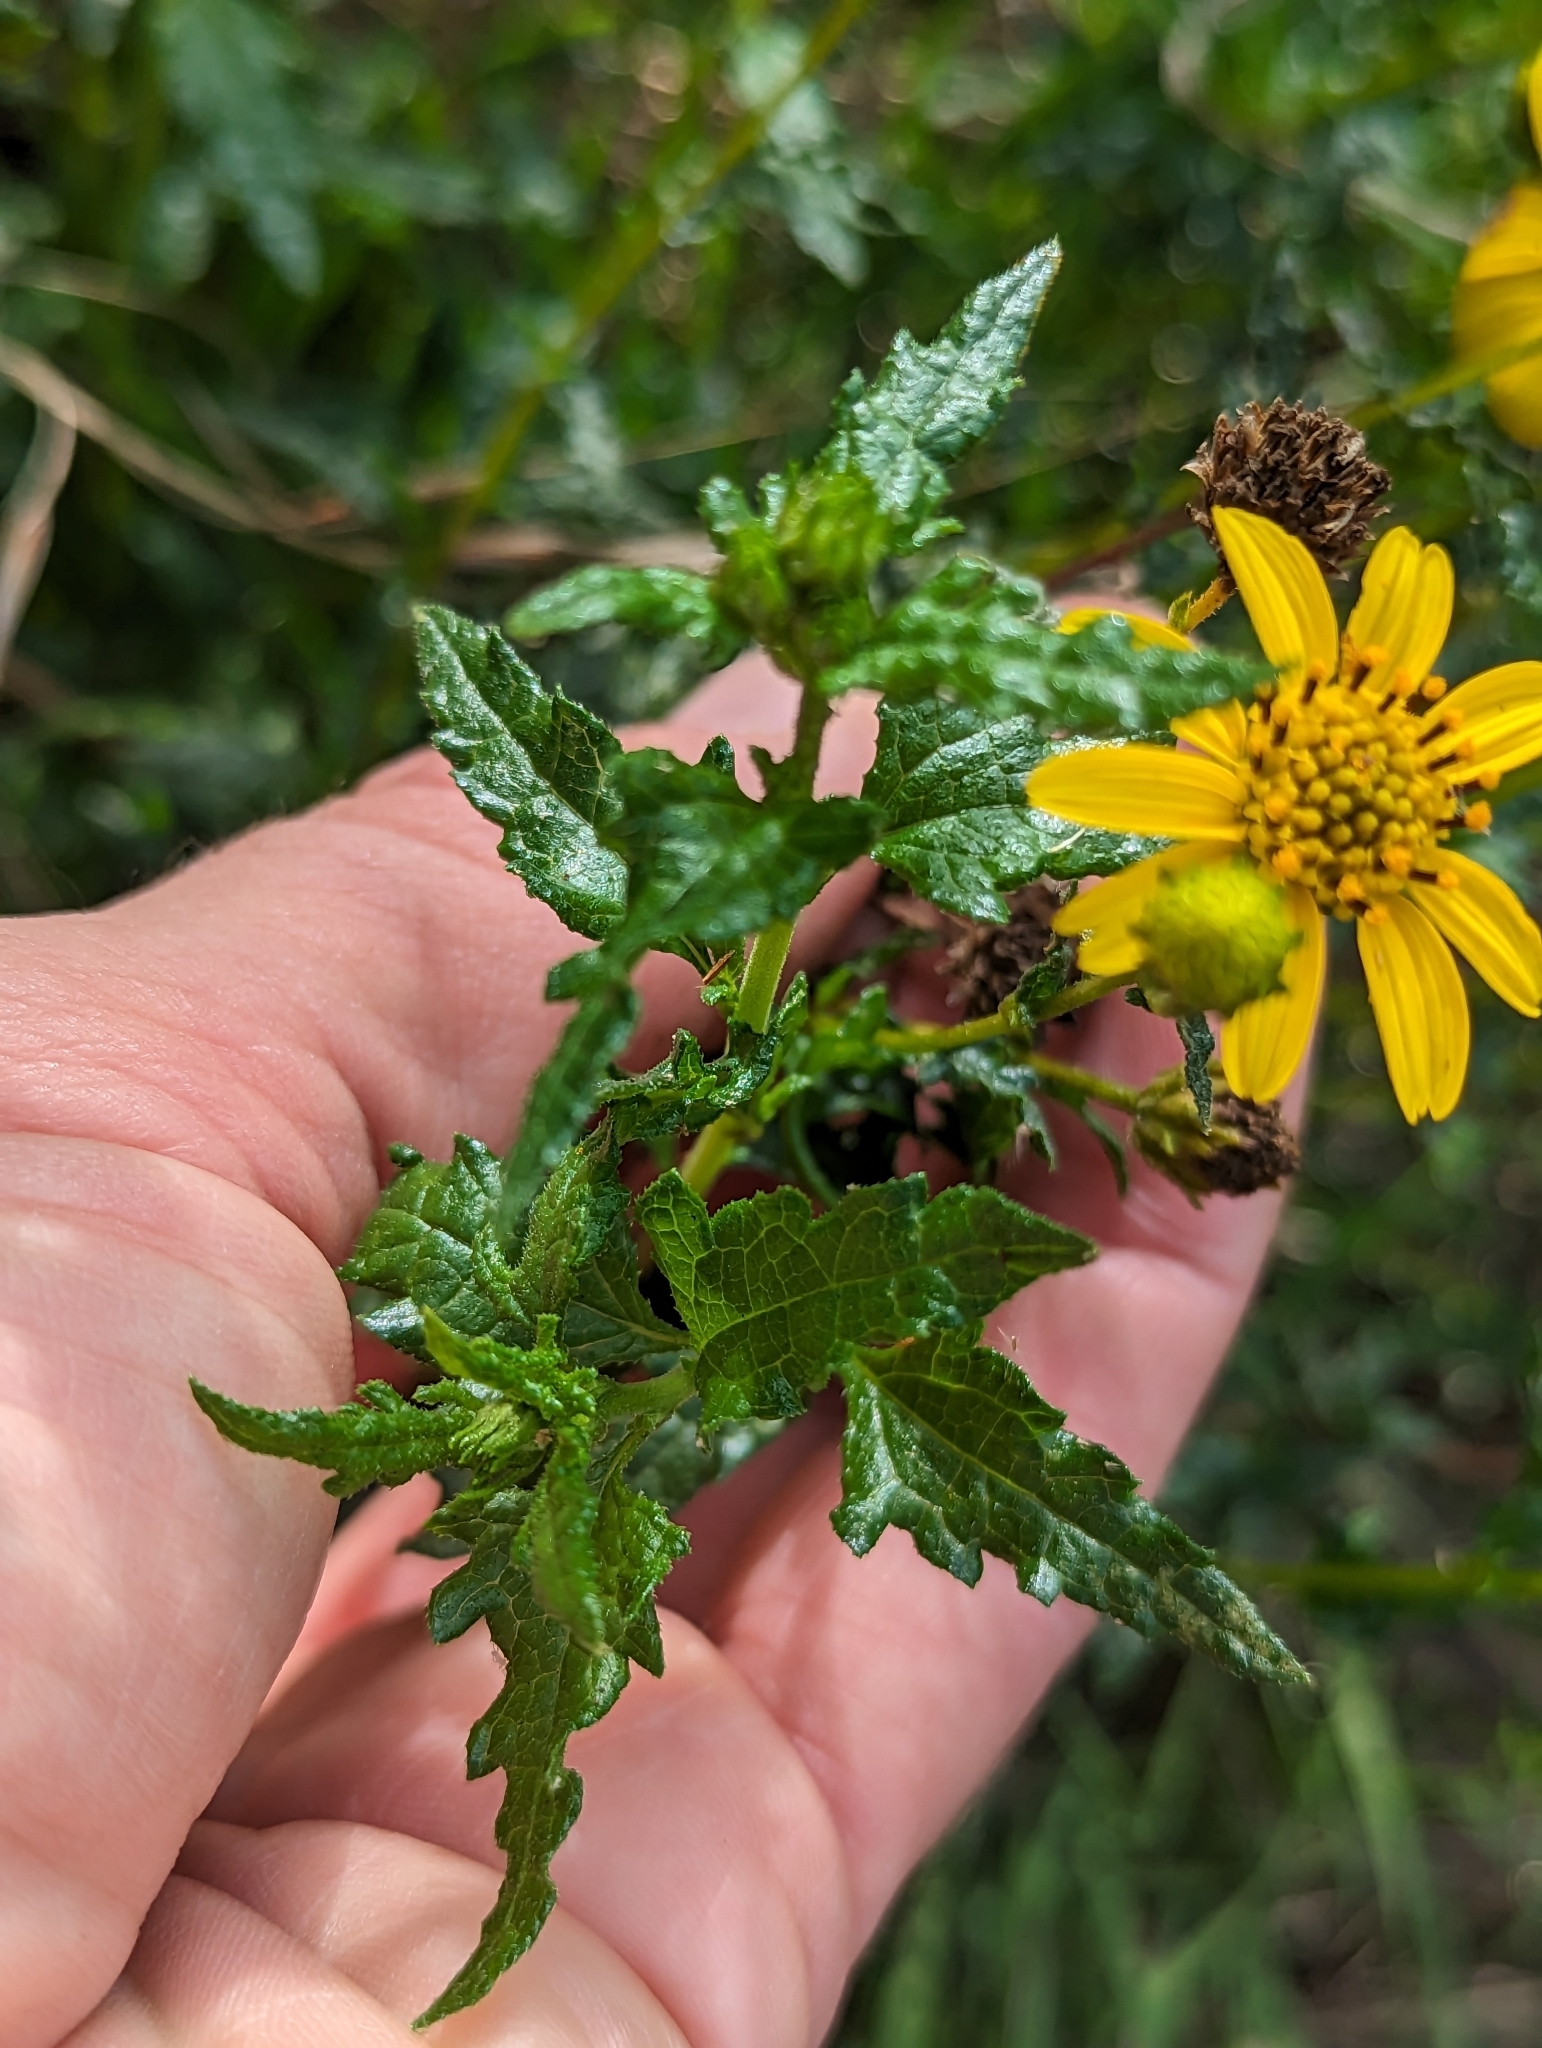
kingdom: Plantae
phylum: Tracheophyta
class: Magnoliopsida
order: Asterales
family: Asteraceae
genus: Bahiopsis
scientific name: Bahiopsis laciniata
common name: San diego county viguiera
